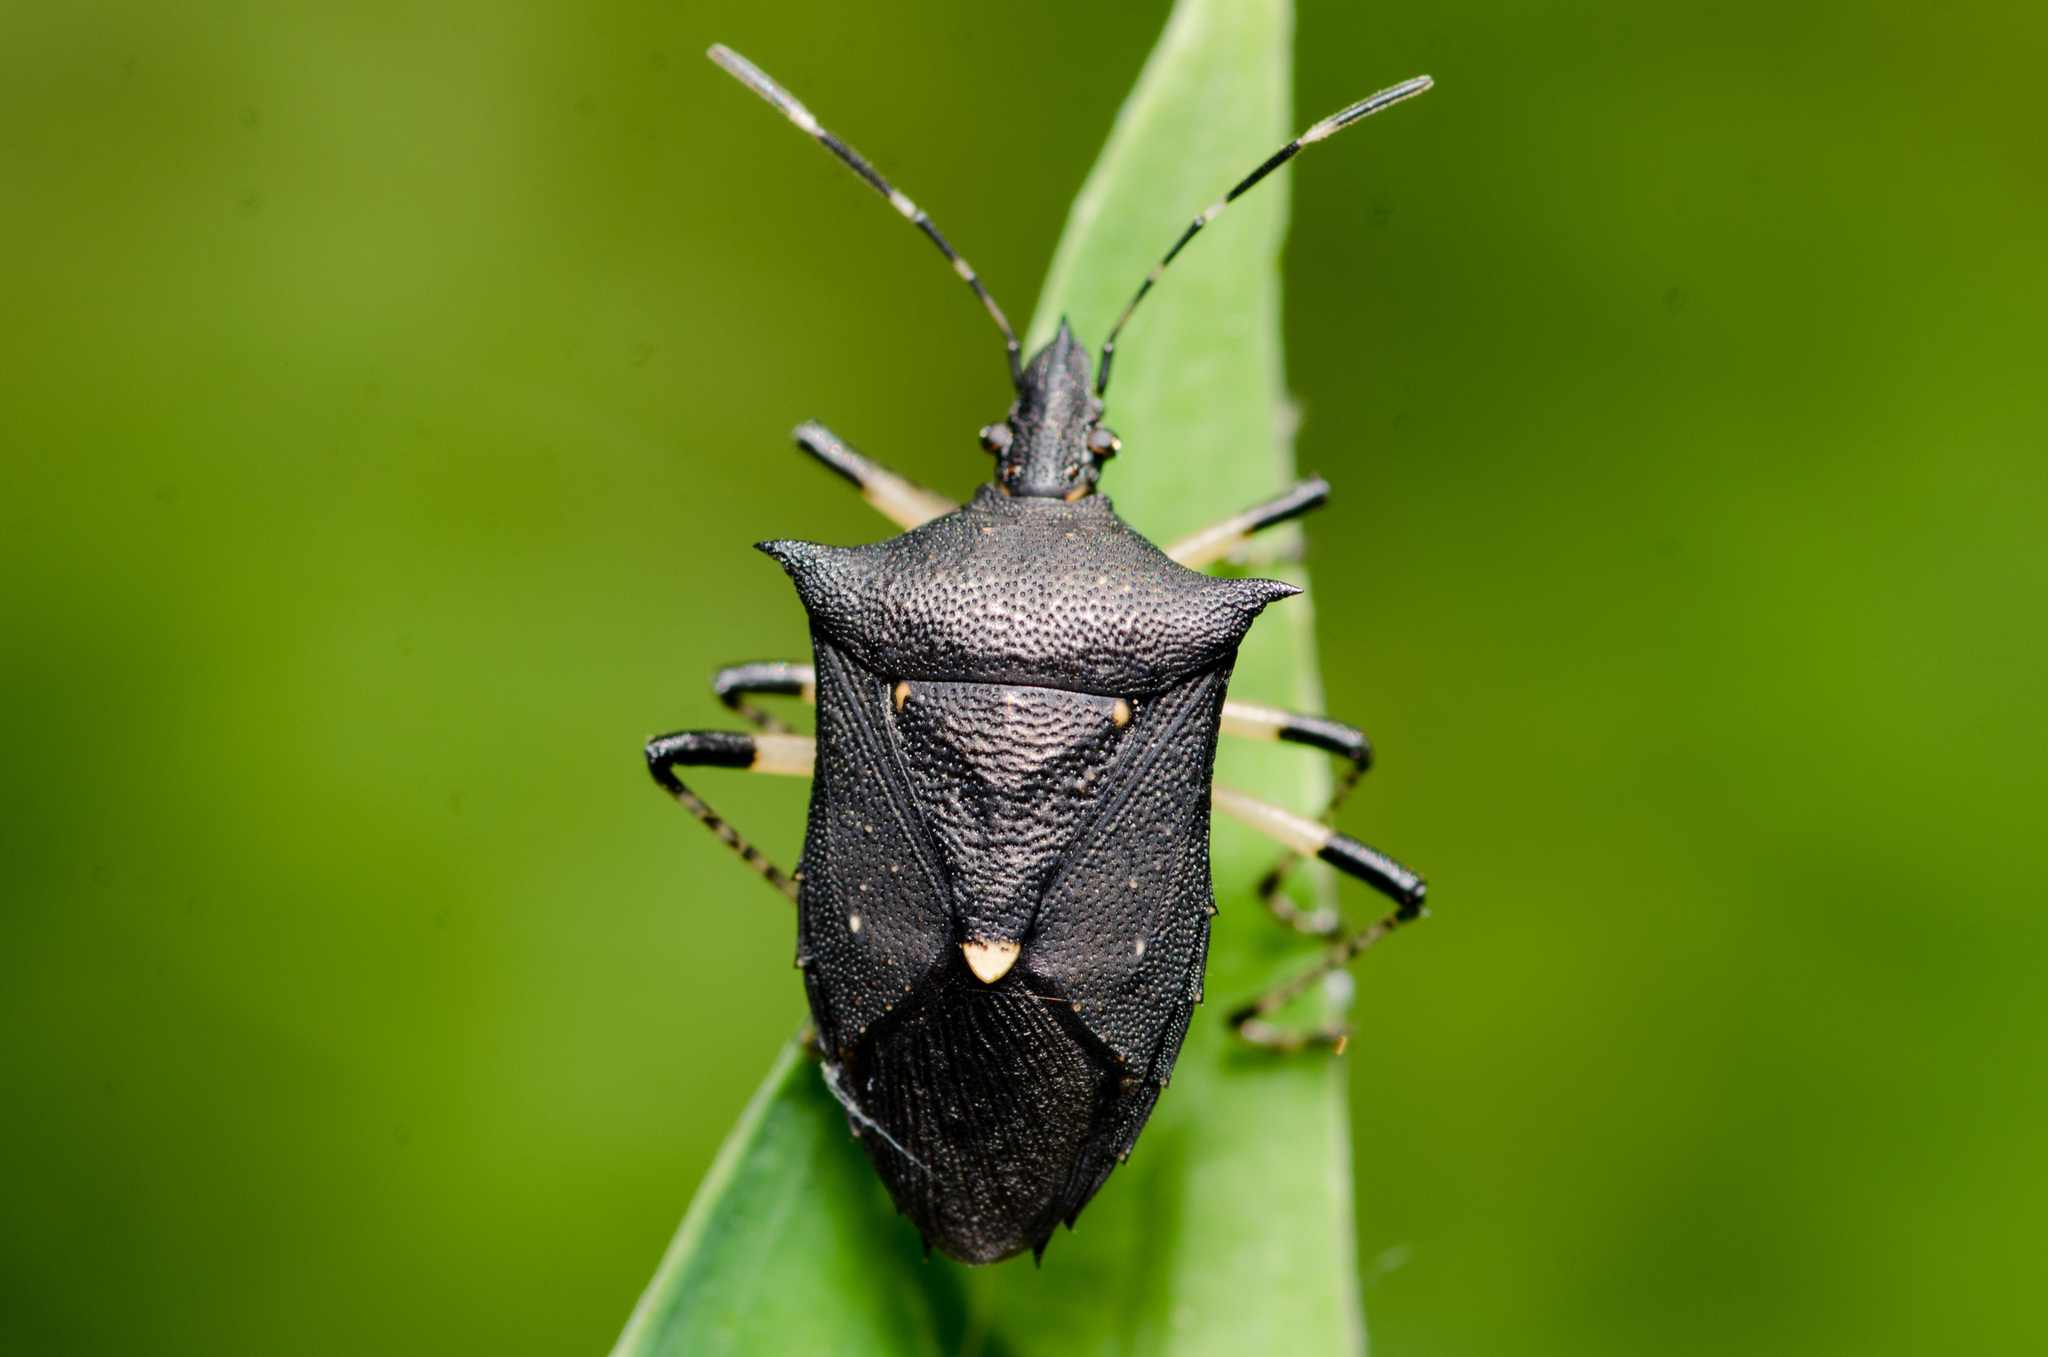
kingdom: Animalia
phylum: Arthropoda
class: Insecta
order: Hemiptera
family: Pentatomidae
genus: Proxys
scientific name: Proxys punctulatus
